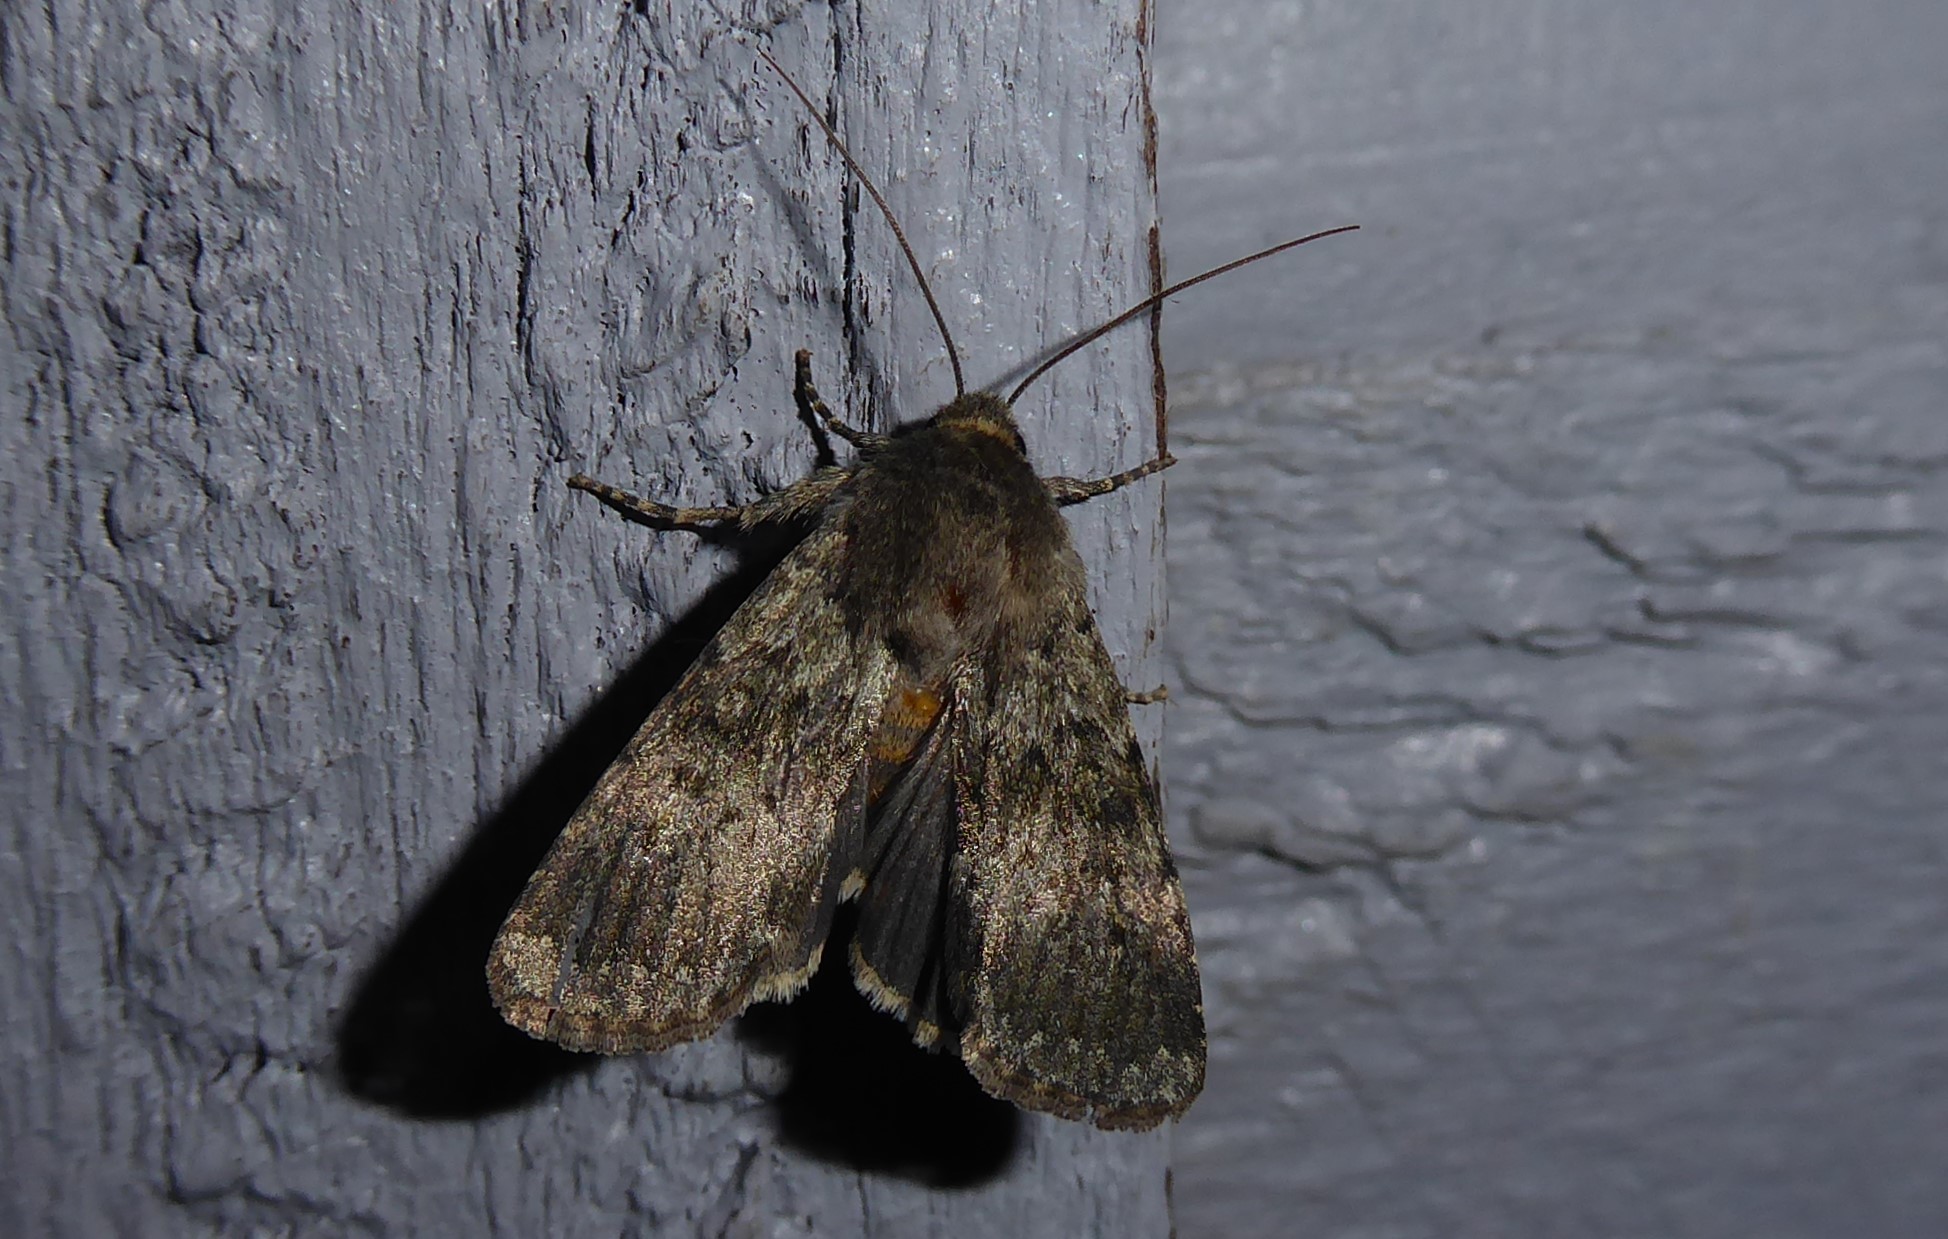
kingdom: Animalia
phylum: Arthropoda
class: Insecta
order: Lepidoptera
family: Noctuidae
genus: Ichneutica
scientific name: Ichneutica moderata
